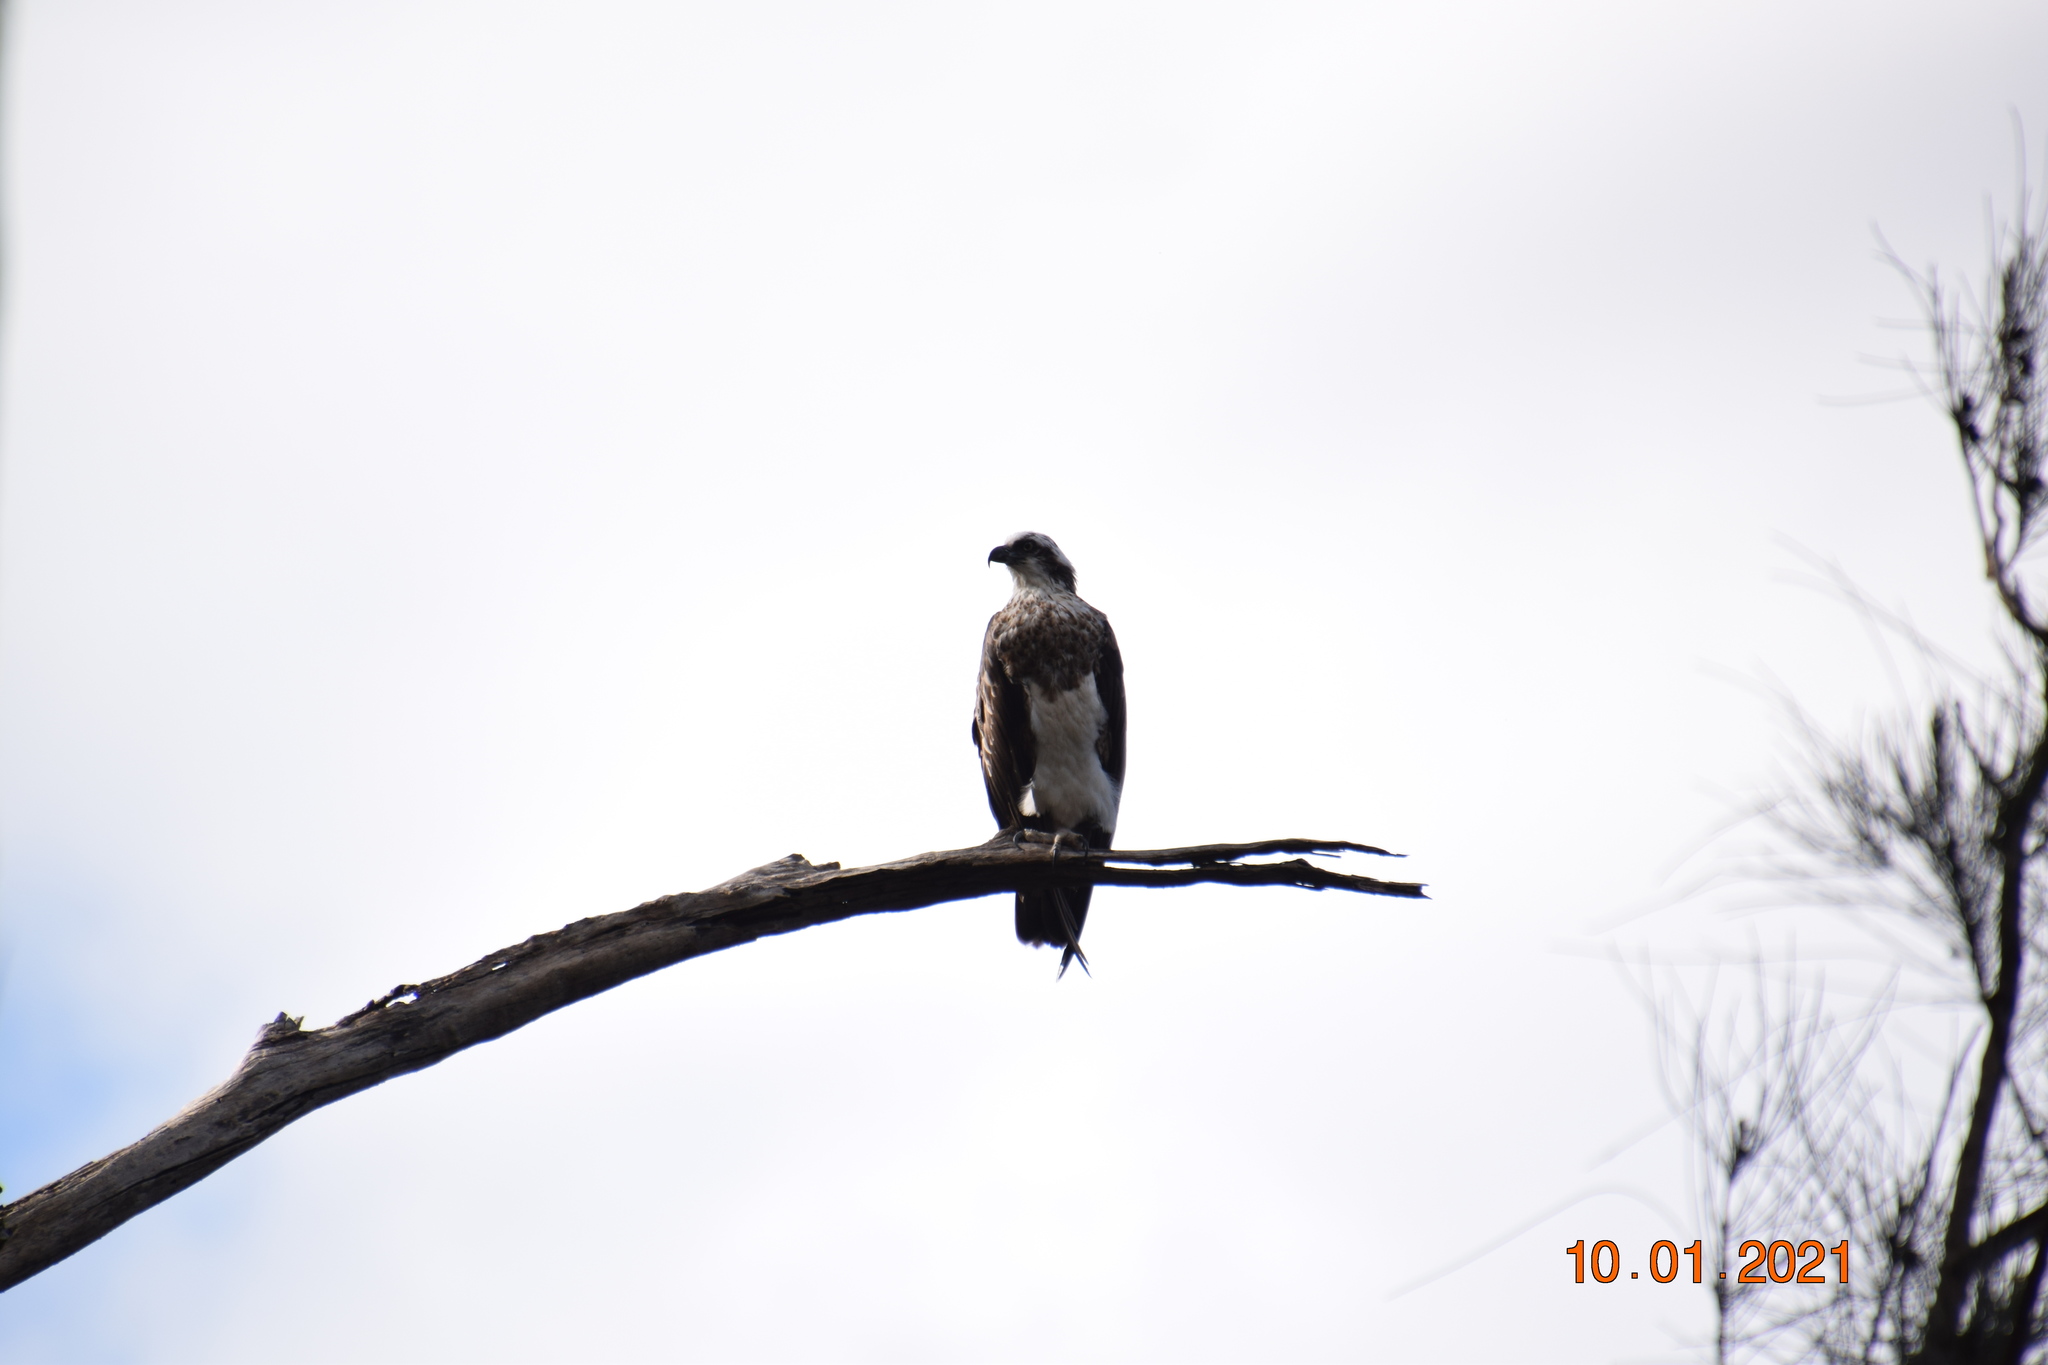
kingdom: Animalia
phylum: Chordata
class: Aves
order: Accipitriformes
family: Pandionidae
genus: Pandion
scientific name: Pandion haliaetus
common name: Osprey
